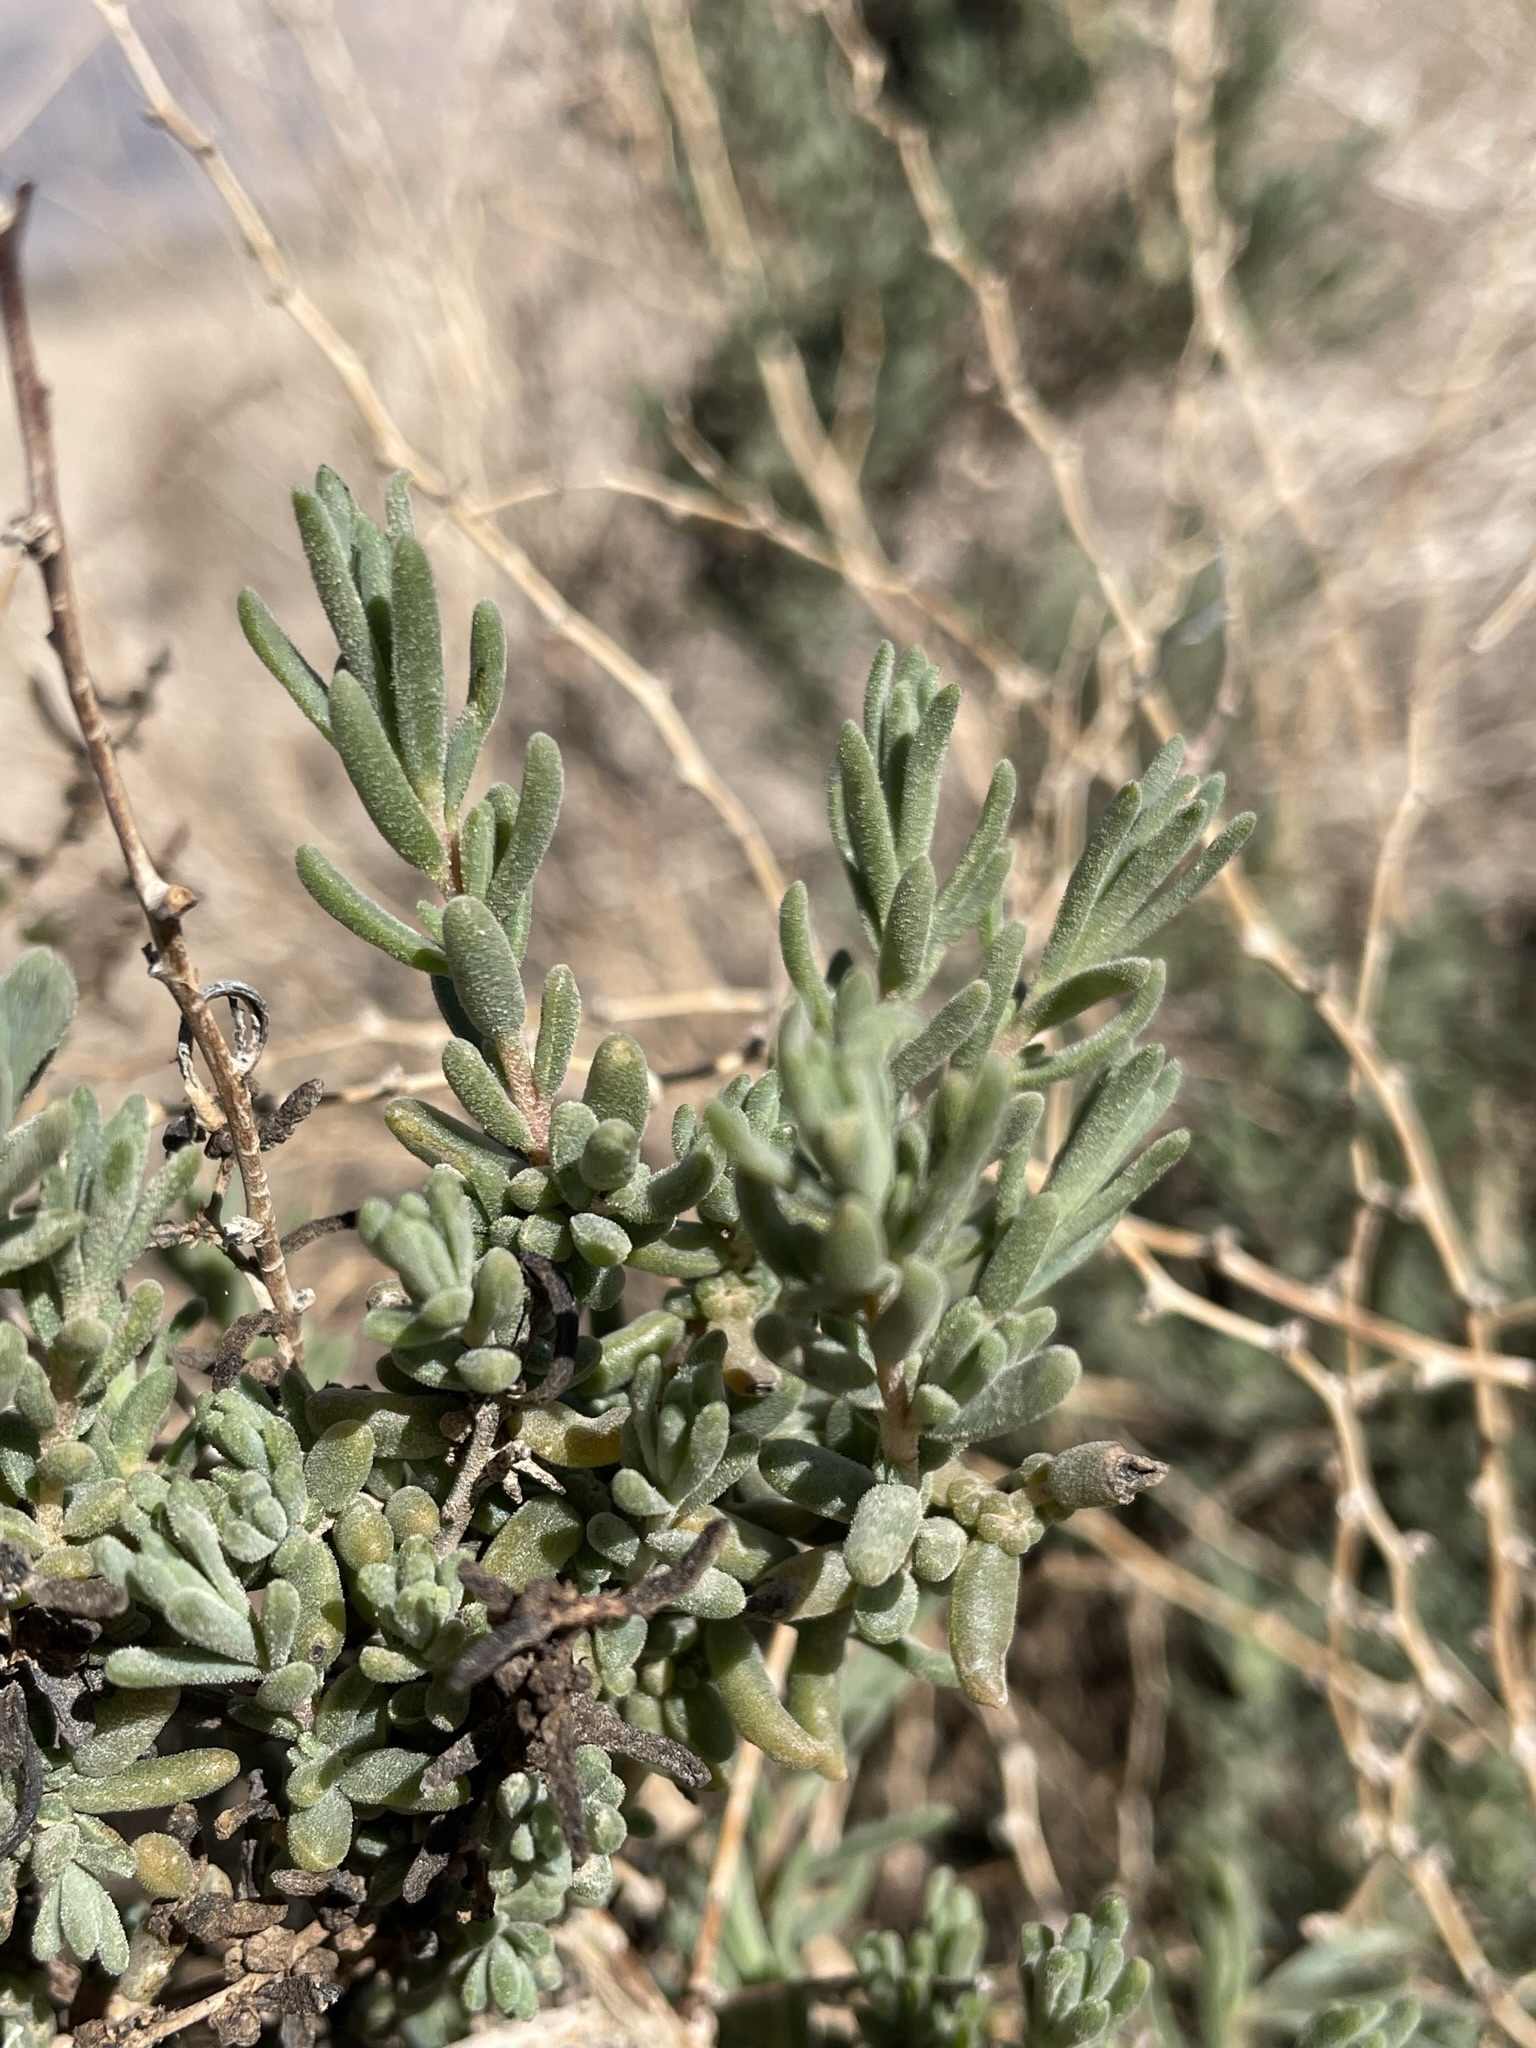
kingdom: Plantae
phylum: Tracheophyta
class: Magnoliopsida
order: Caryophyllales
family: Amaranthaceae
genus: Suaeda
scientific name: Suaeda nigra
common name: Bush seepweed
